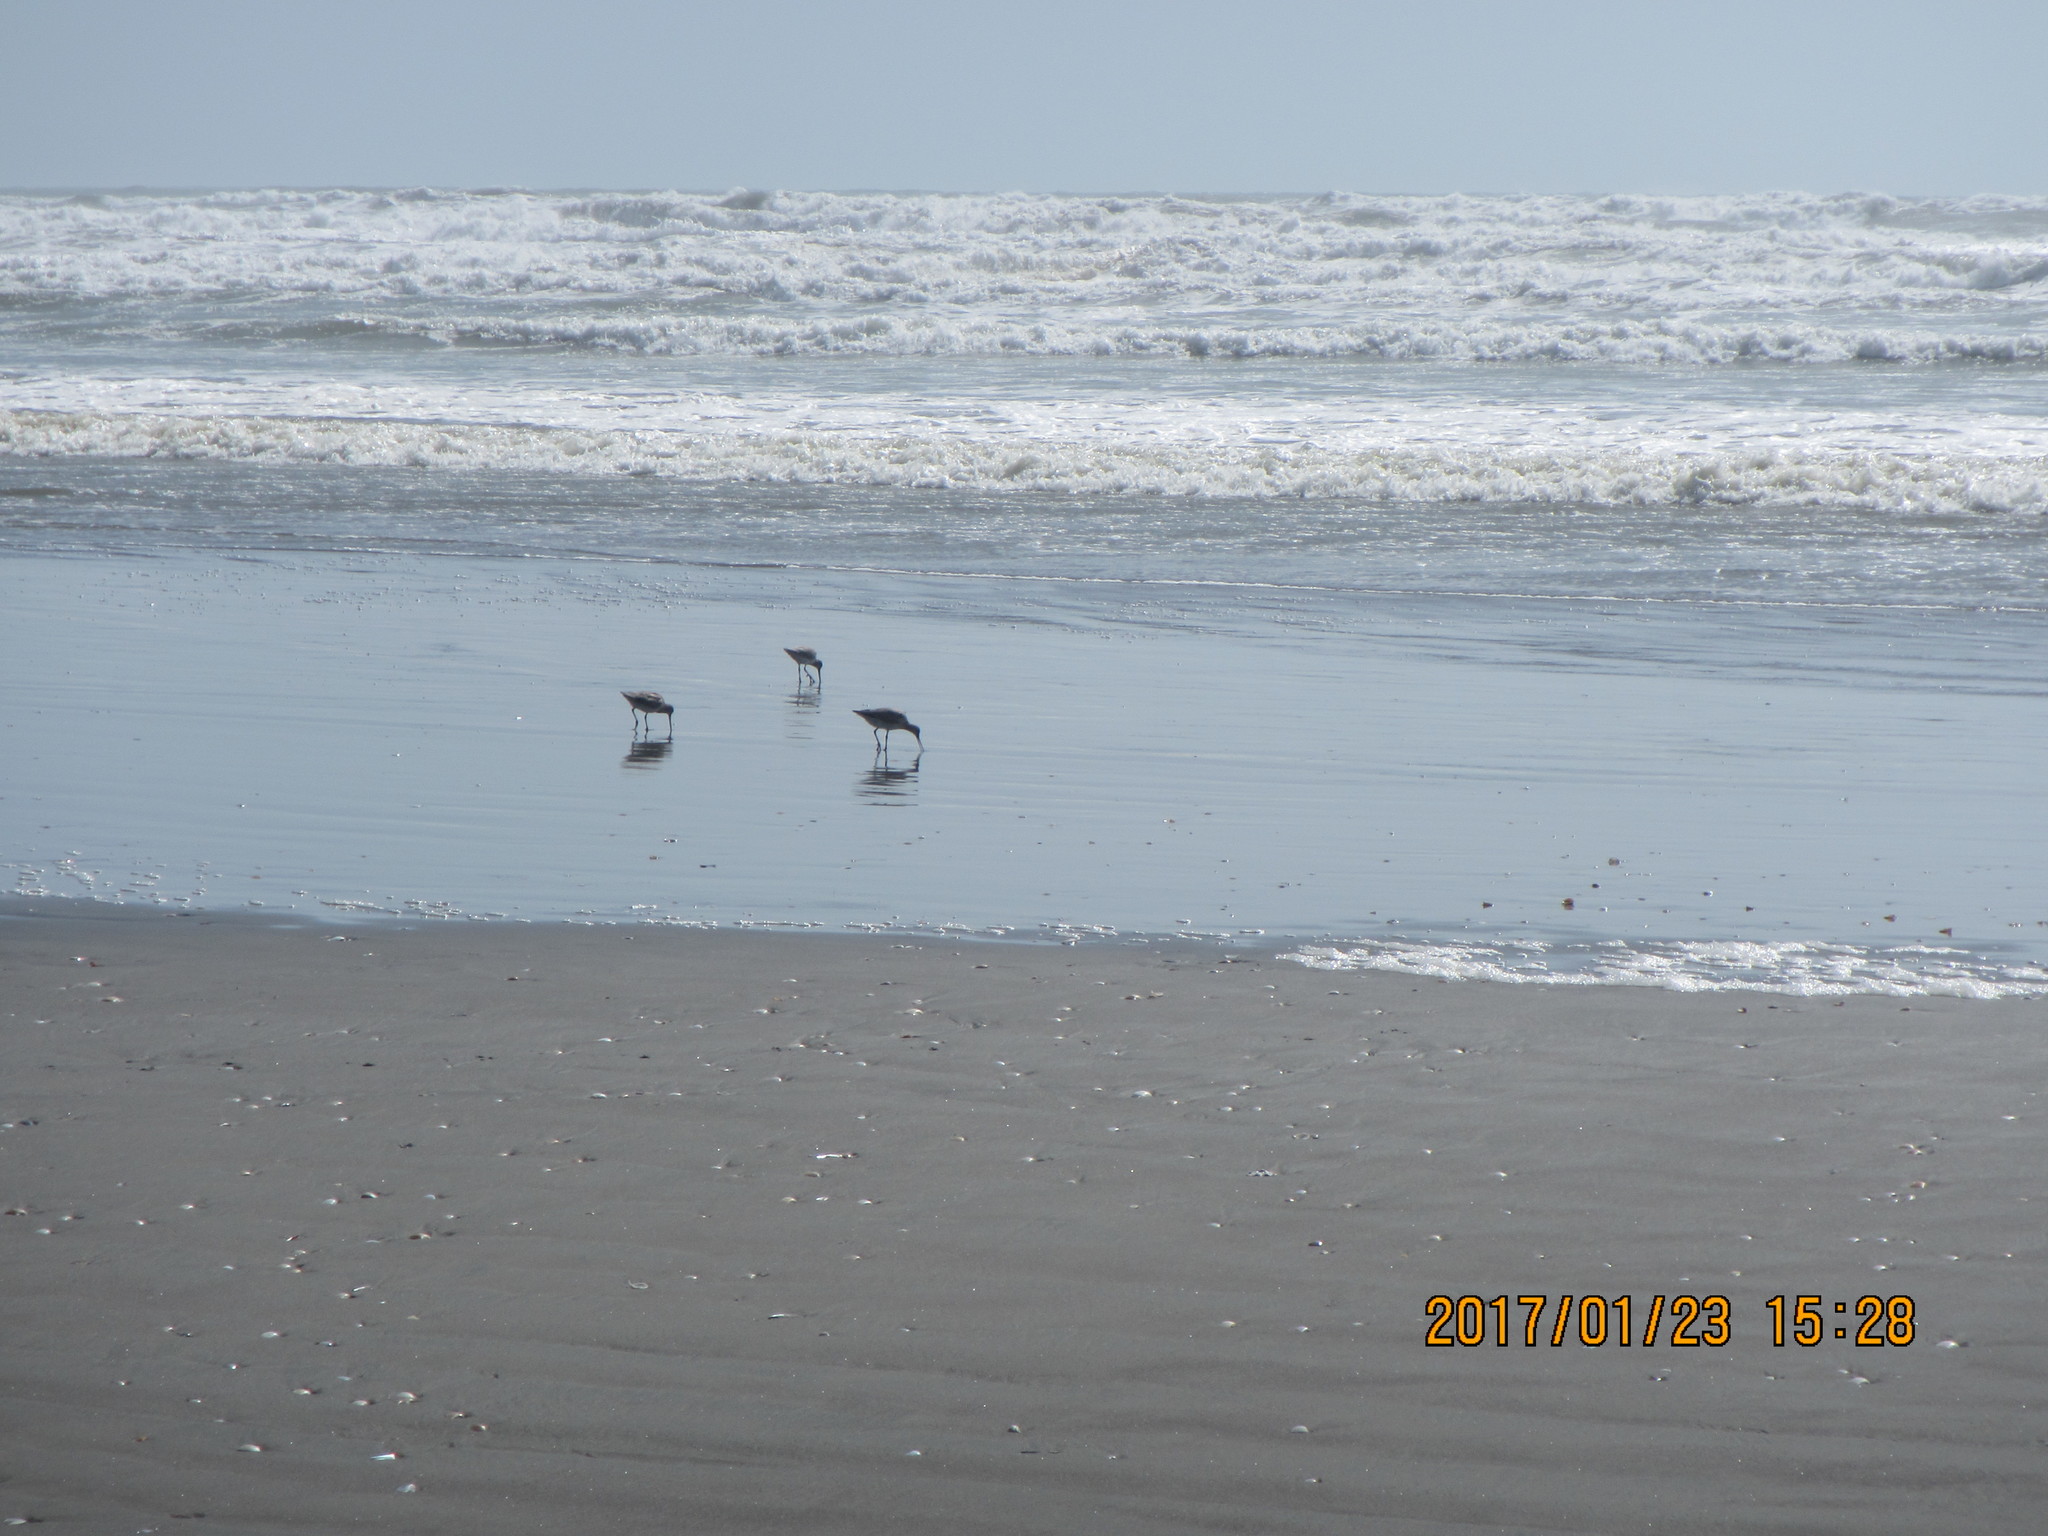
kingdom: Animalia
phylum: Chordata
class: Aves
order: Charadriiformes
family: Scolopacidae
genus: Limosa
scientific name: Limosa lapponica
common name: Bar-tailed godwit
